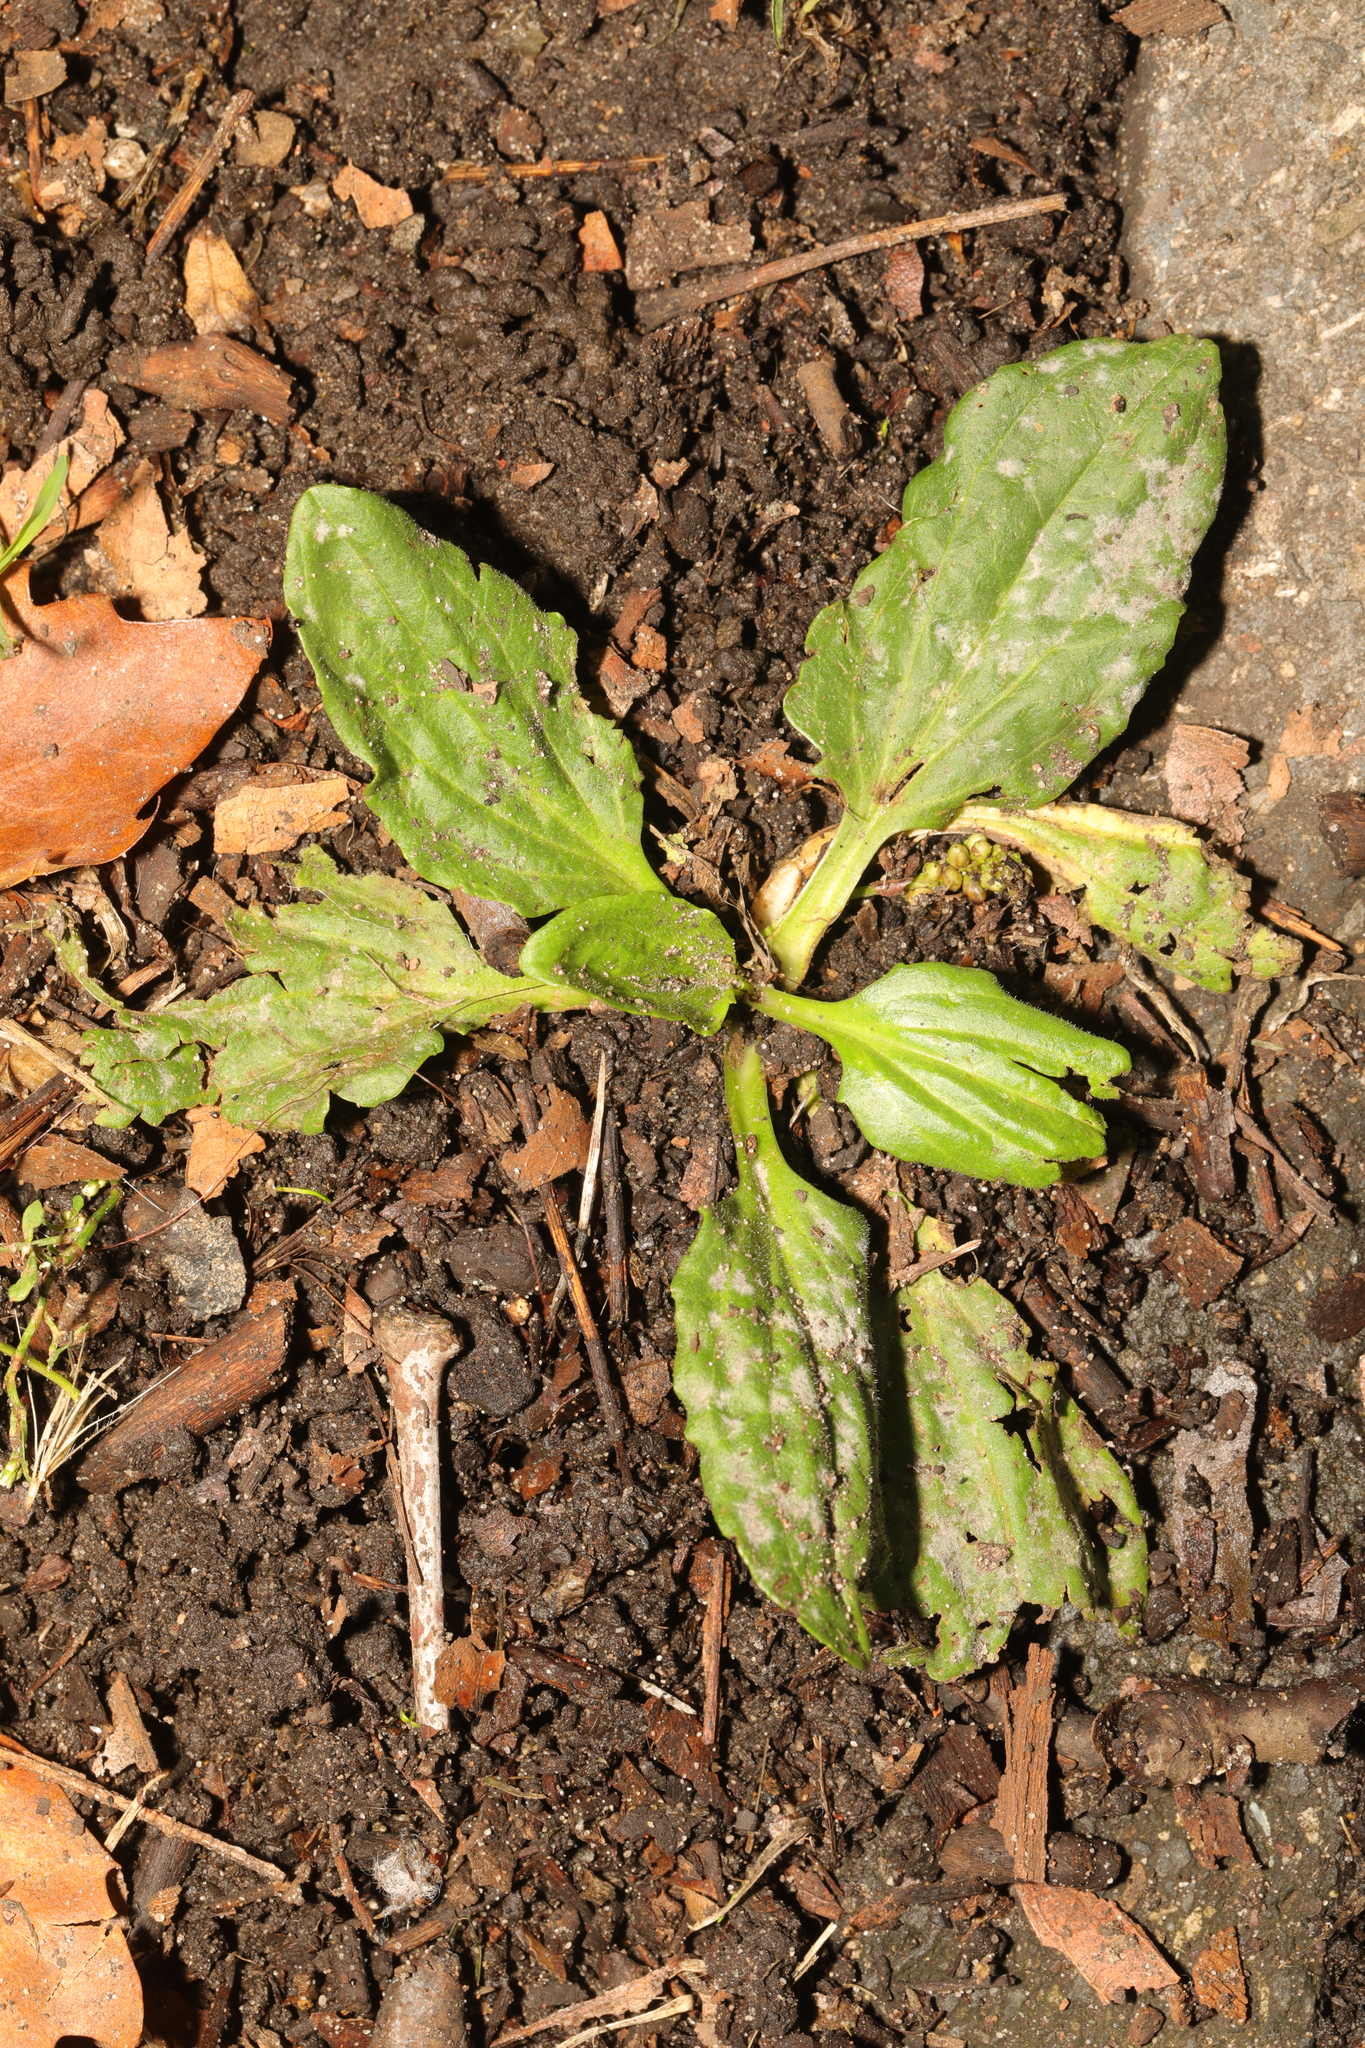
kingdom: Plantae
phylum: Tracheophyta
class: Magnoliopsida
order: Lamiales
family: Plantaginaceae
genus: Plantago
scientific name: Plantago major
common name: Common plantain
